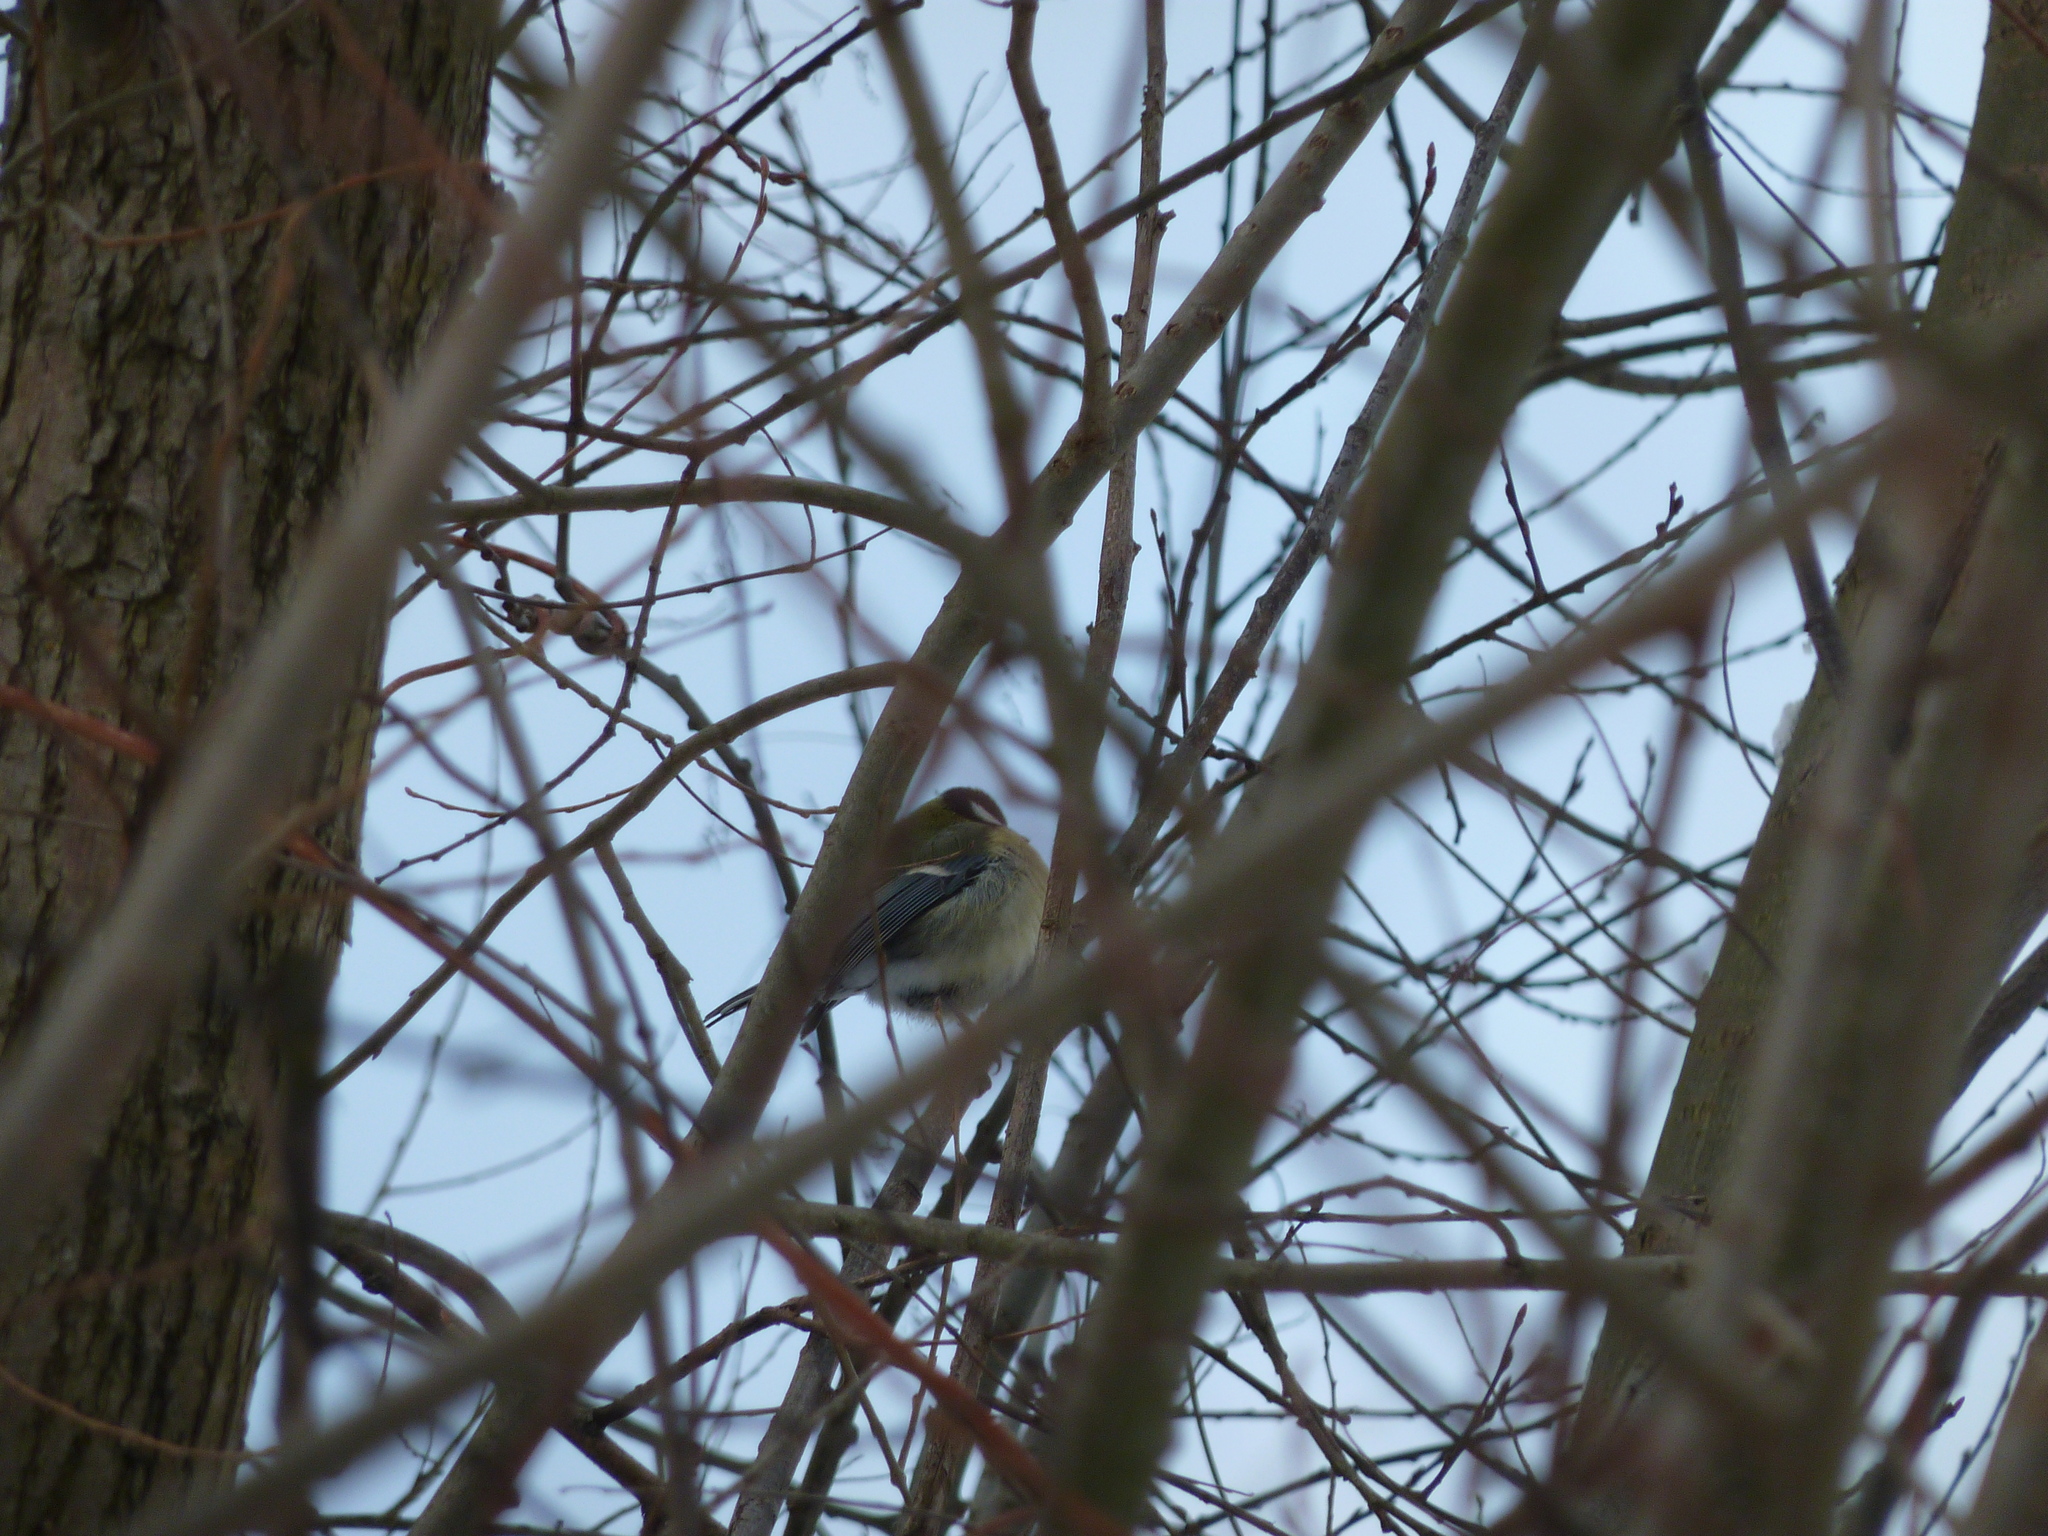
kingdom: Animalia
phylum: Chordata
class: Aves
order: Passeriformes
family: Paridae
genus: Parus
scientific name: Parus major
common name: Great tit
